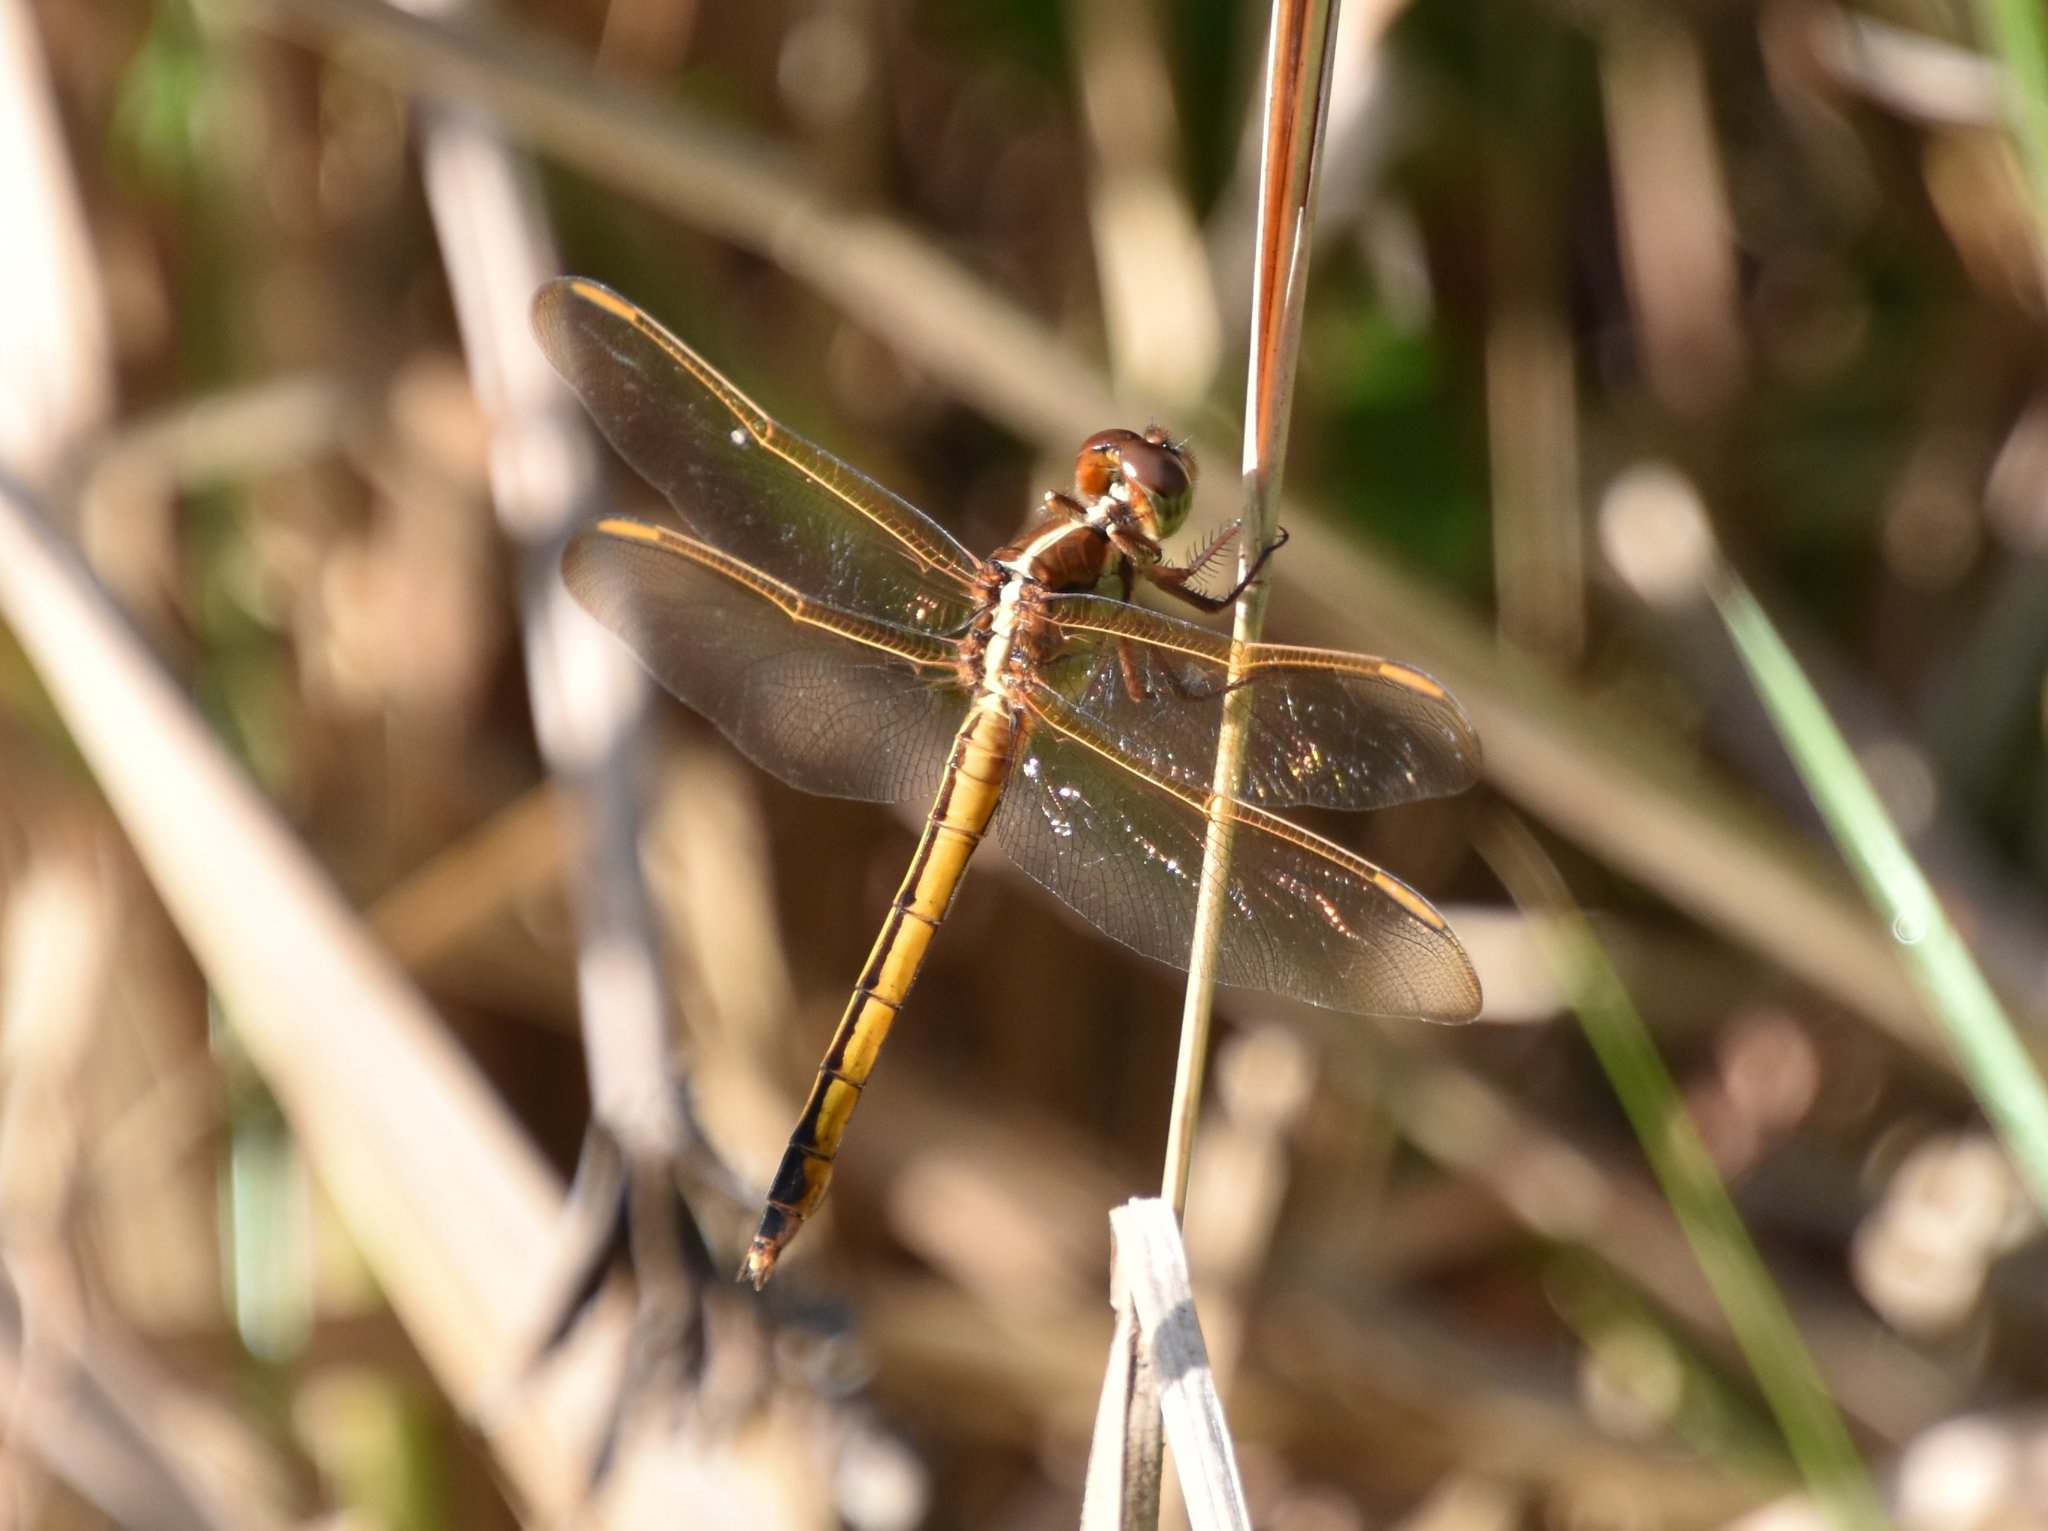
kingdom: Animalia
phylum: Arthropoda
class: Insecta
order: Odonata
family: Libellulidae
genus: Libellula
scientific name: Libellula needhami
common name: Needham's skimmer
